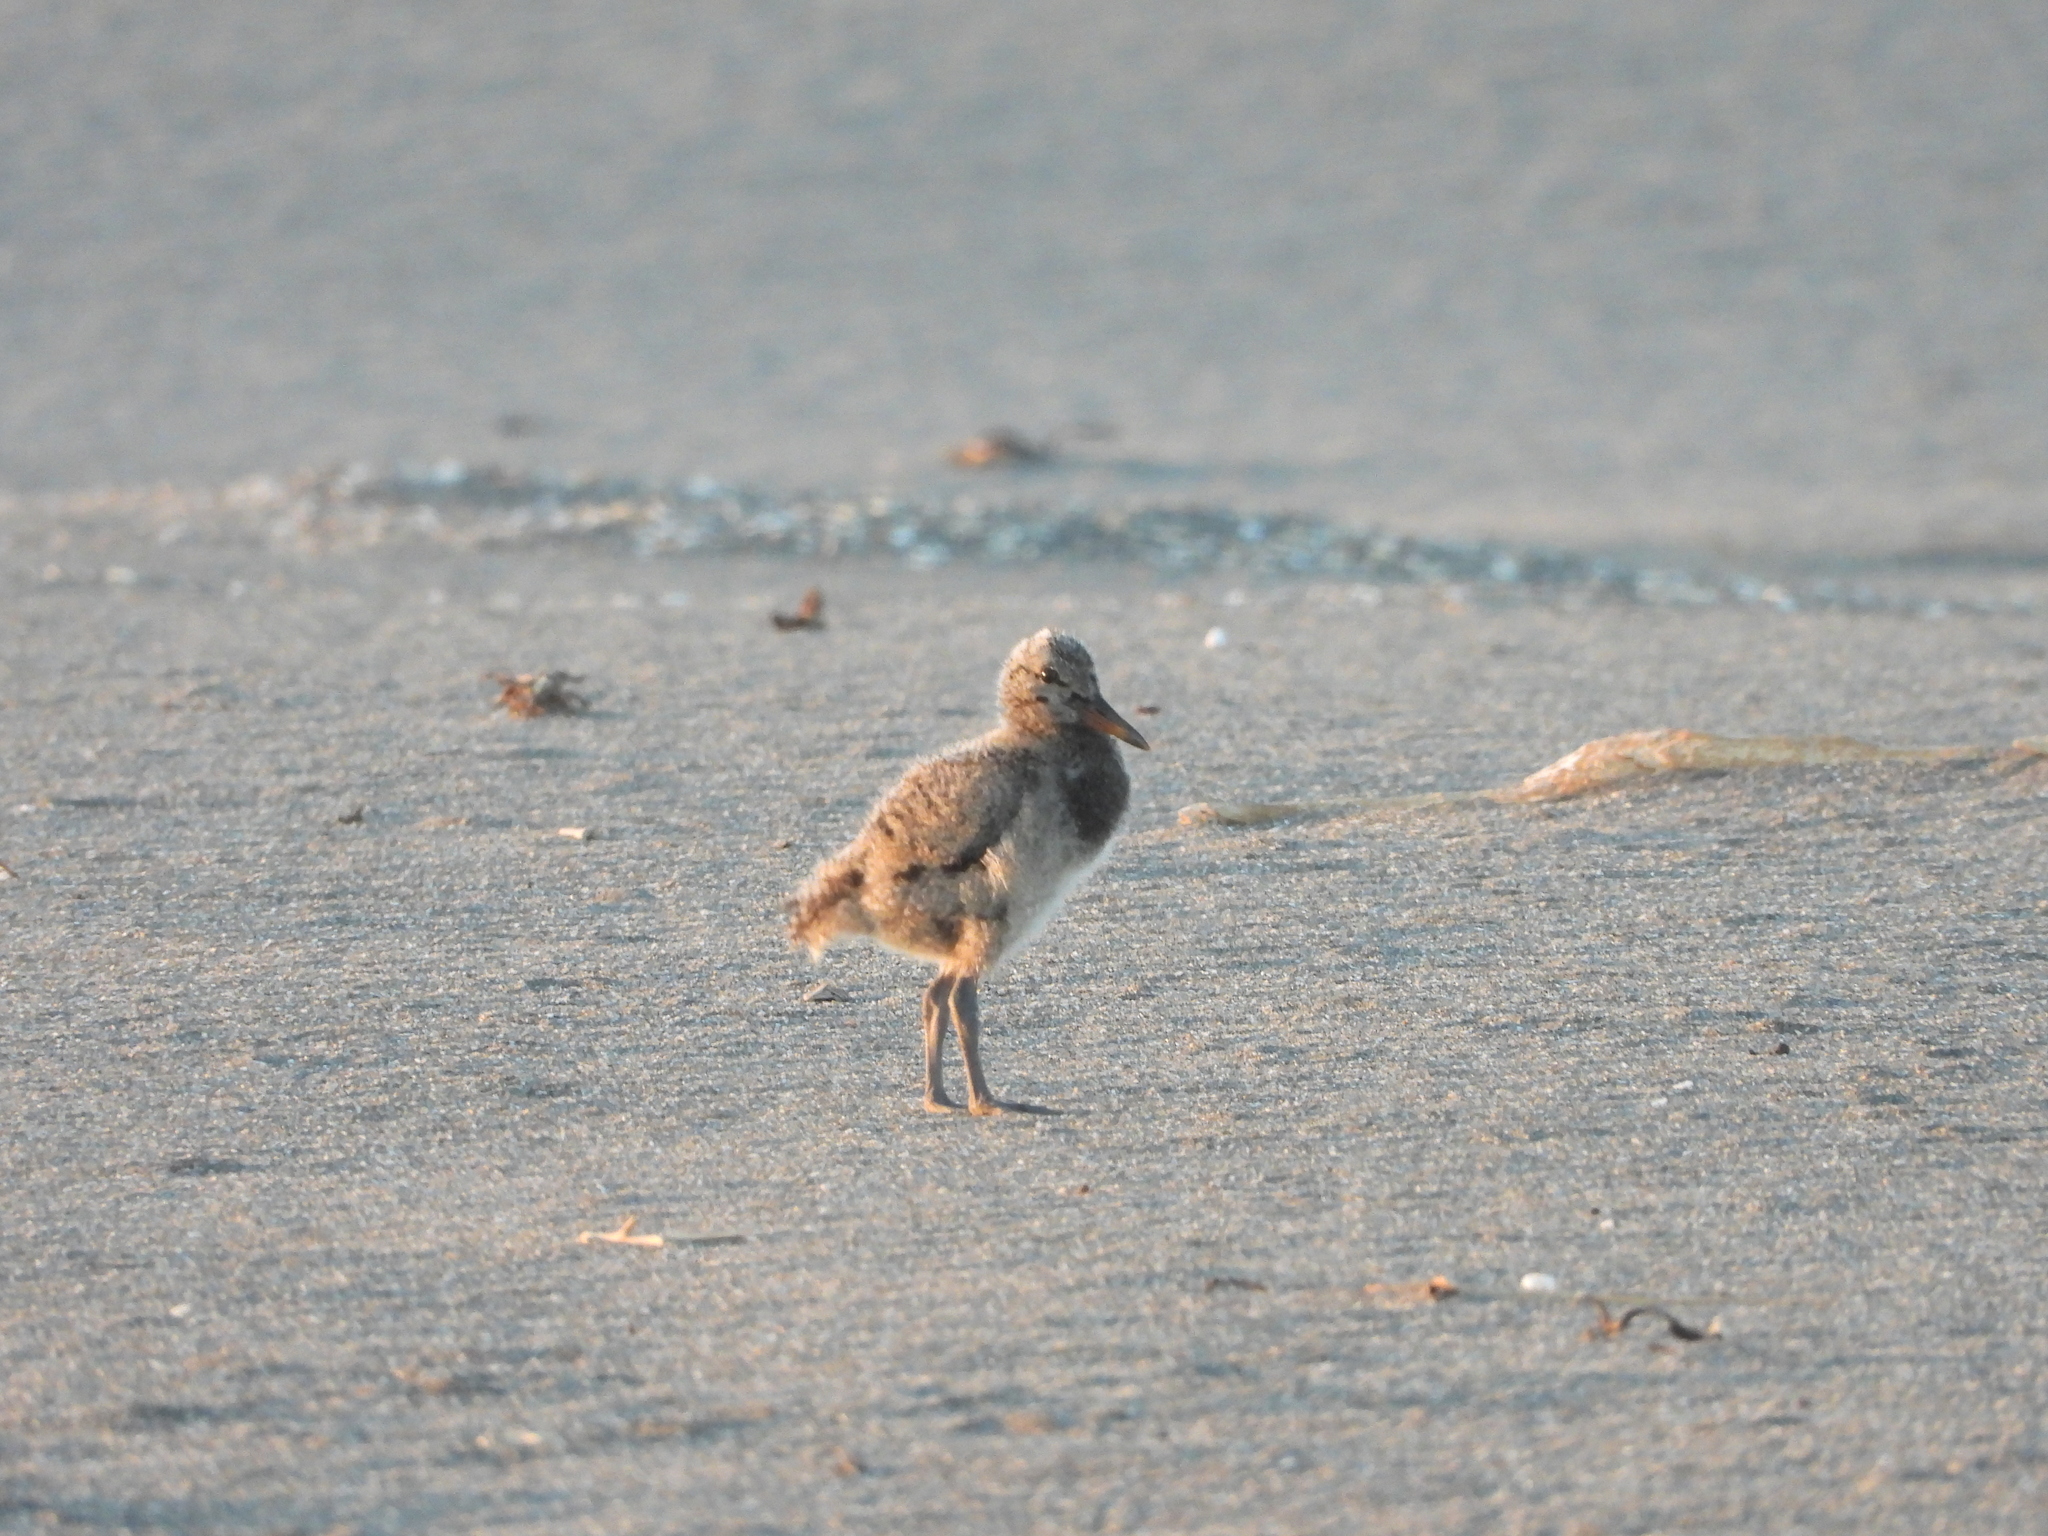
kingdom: Animalia
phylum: Chordata
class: Aves
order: Charadriiformes
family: Haematopodidae
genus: Haematopus
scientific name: Haematopus unicolor
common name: Variable oystercatcher
